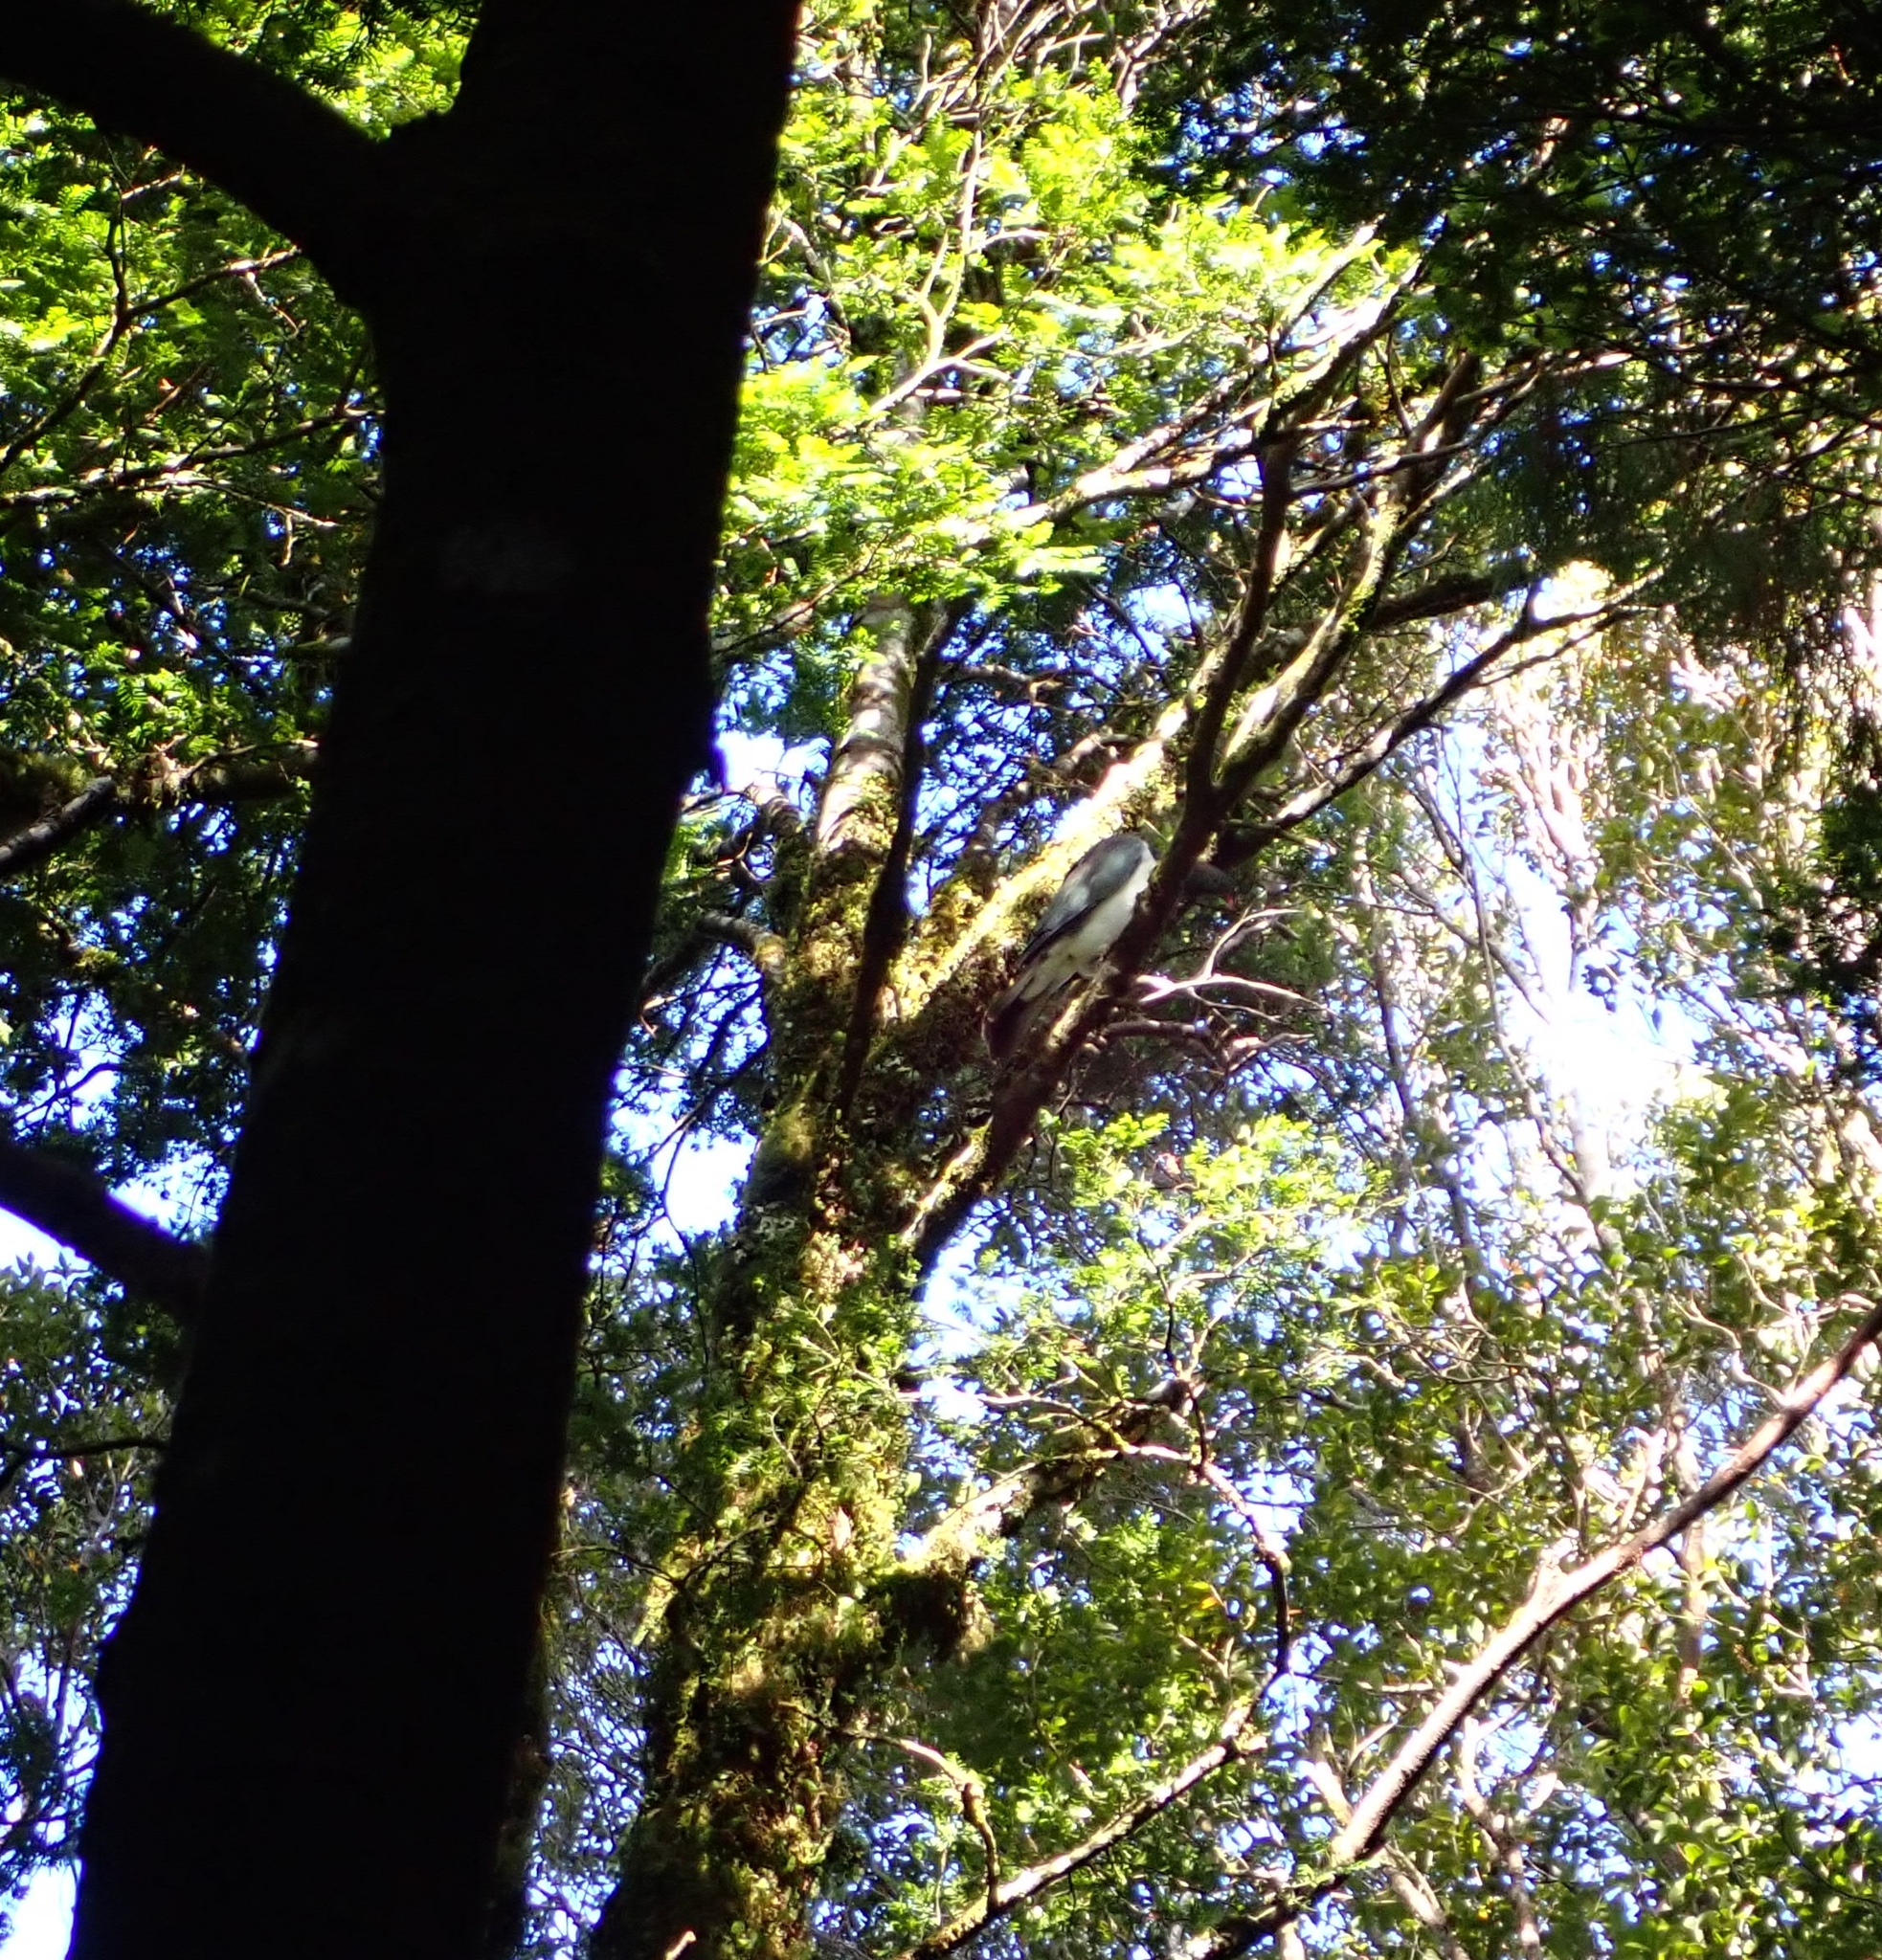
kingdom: Animalia
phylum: Chordata
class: Aves
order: Columbiformes
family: Columbidae
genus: Hemiphaga
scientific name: Hemiphaga novaeseelandiae
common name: New zealand pigeon
